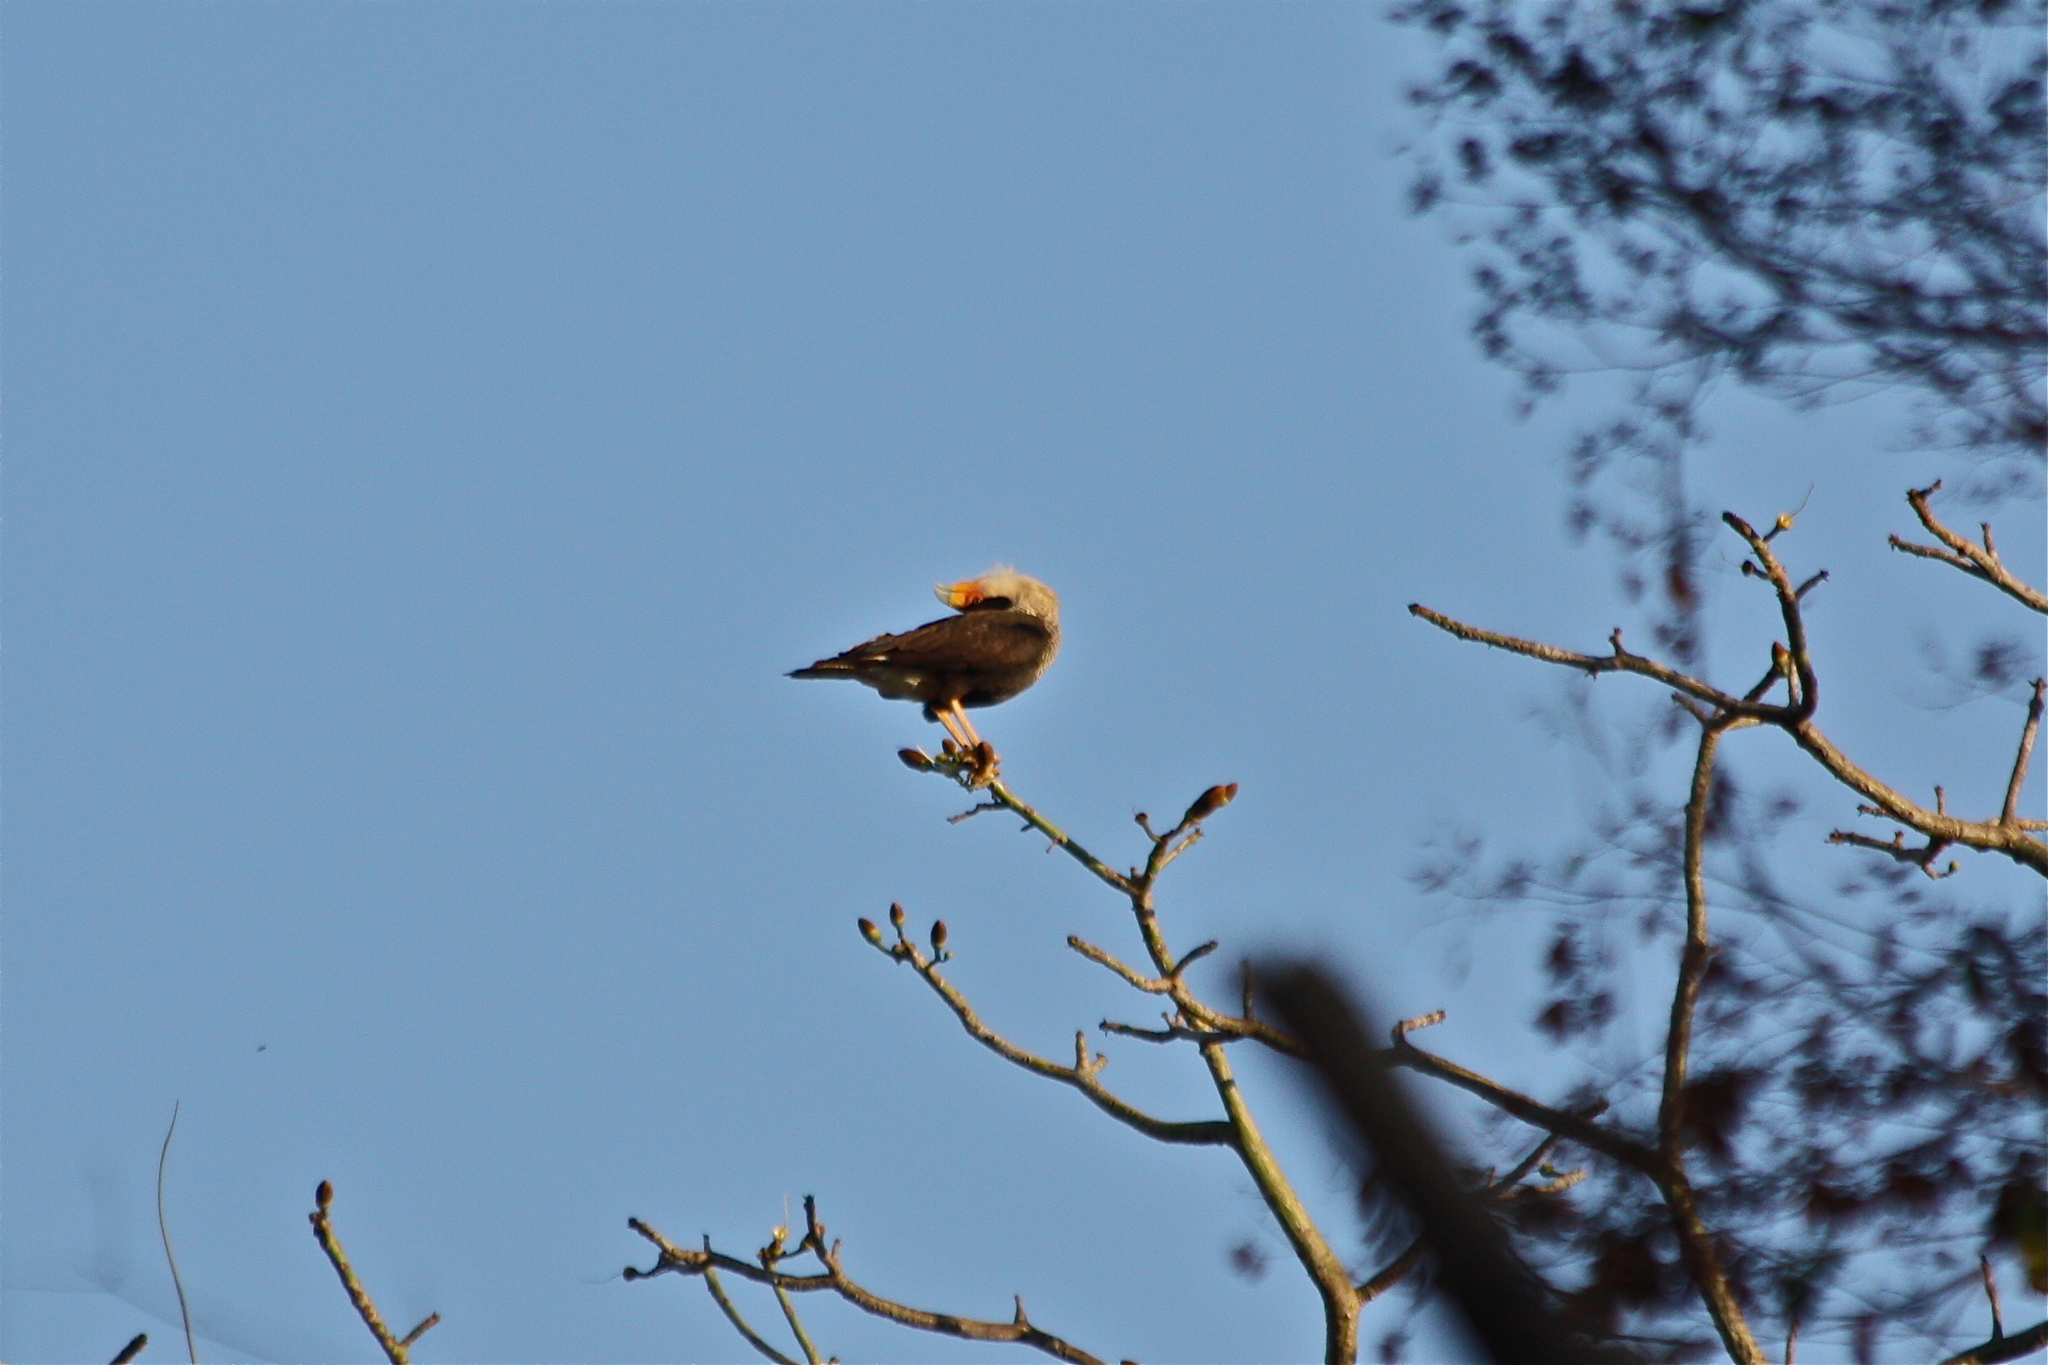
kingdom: Animalia
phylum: Chordata
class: Aves
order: Falconiformes
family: Falconidae
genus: Caracara
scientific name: Caracara plancus
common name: Southern caracara
